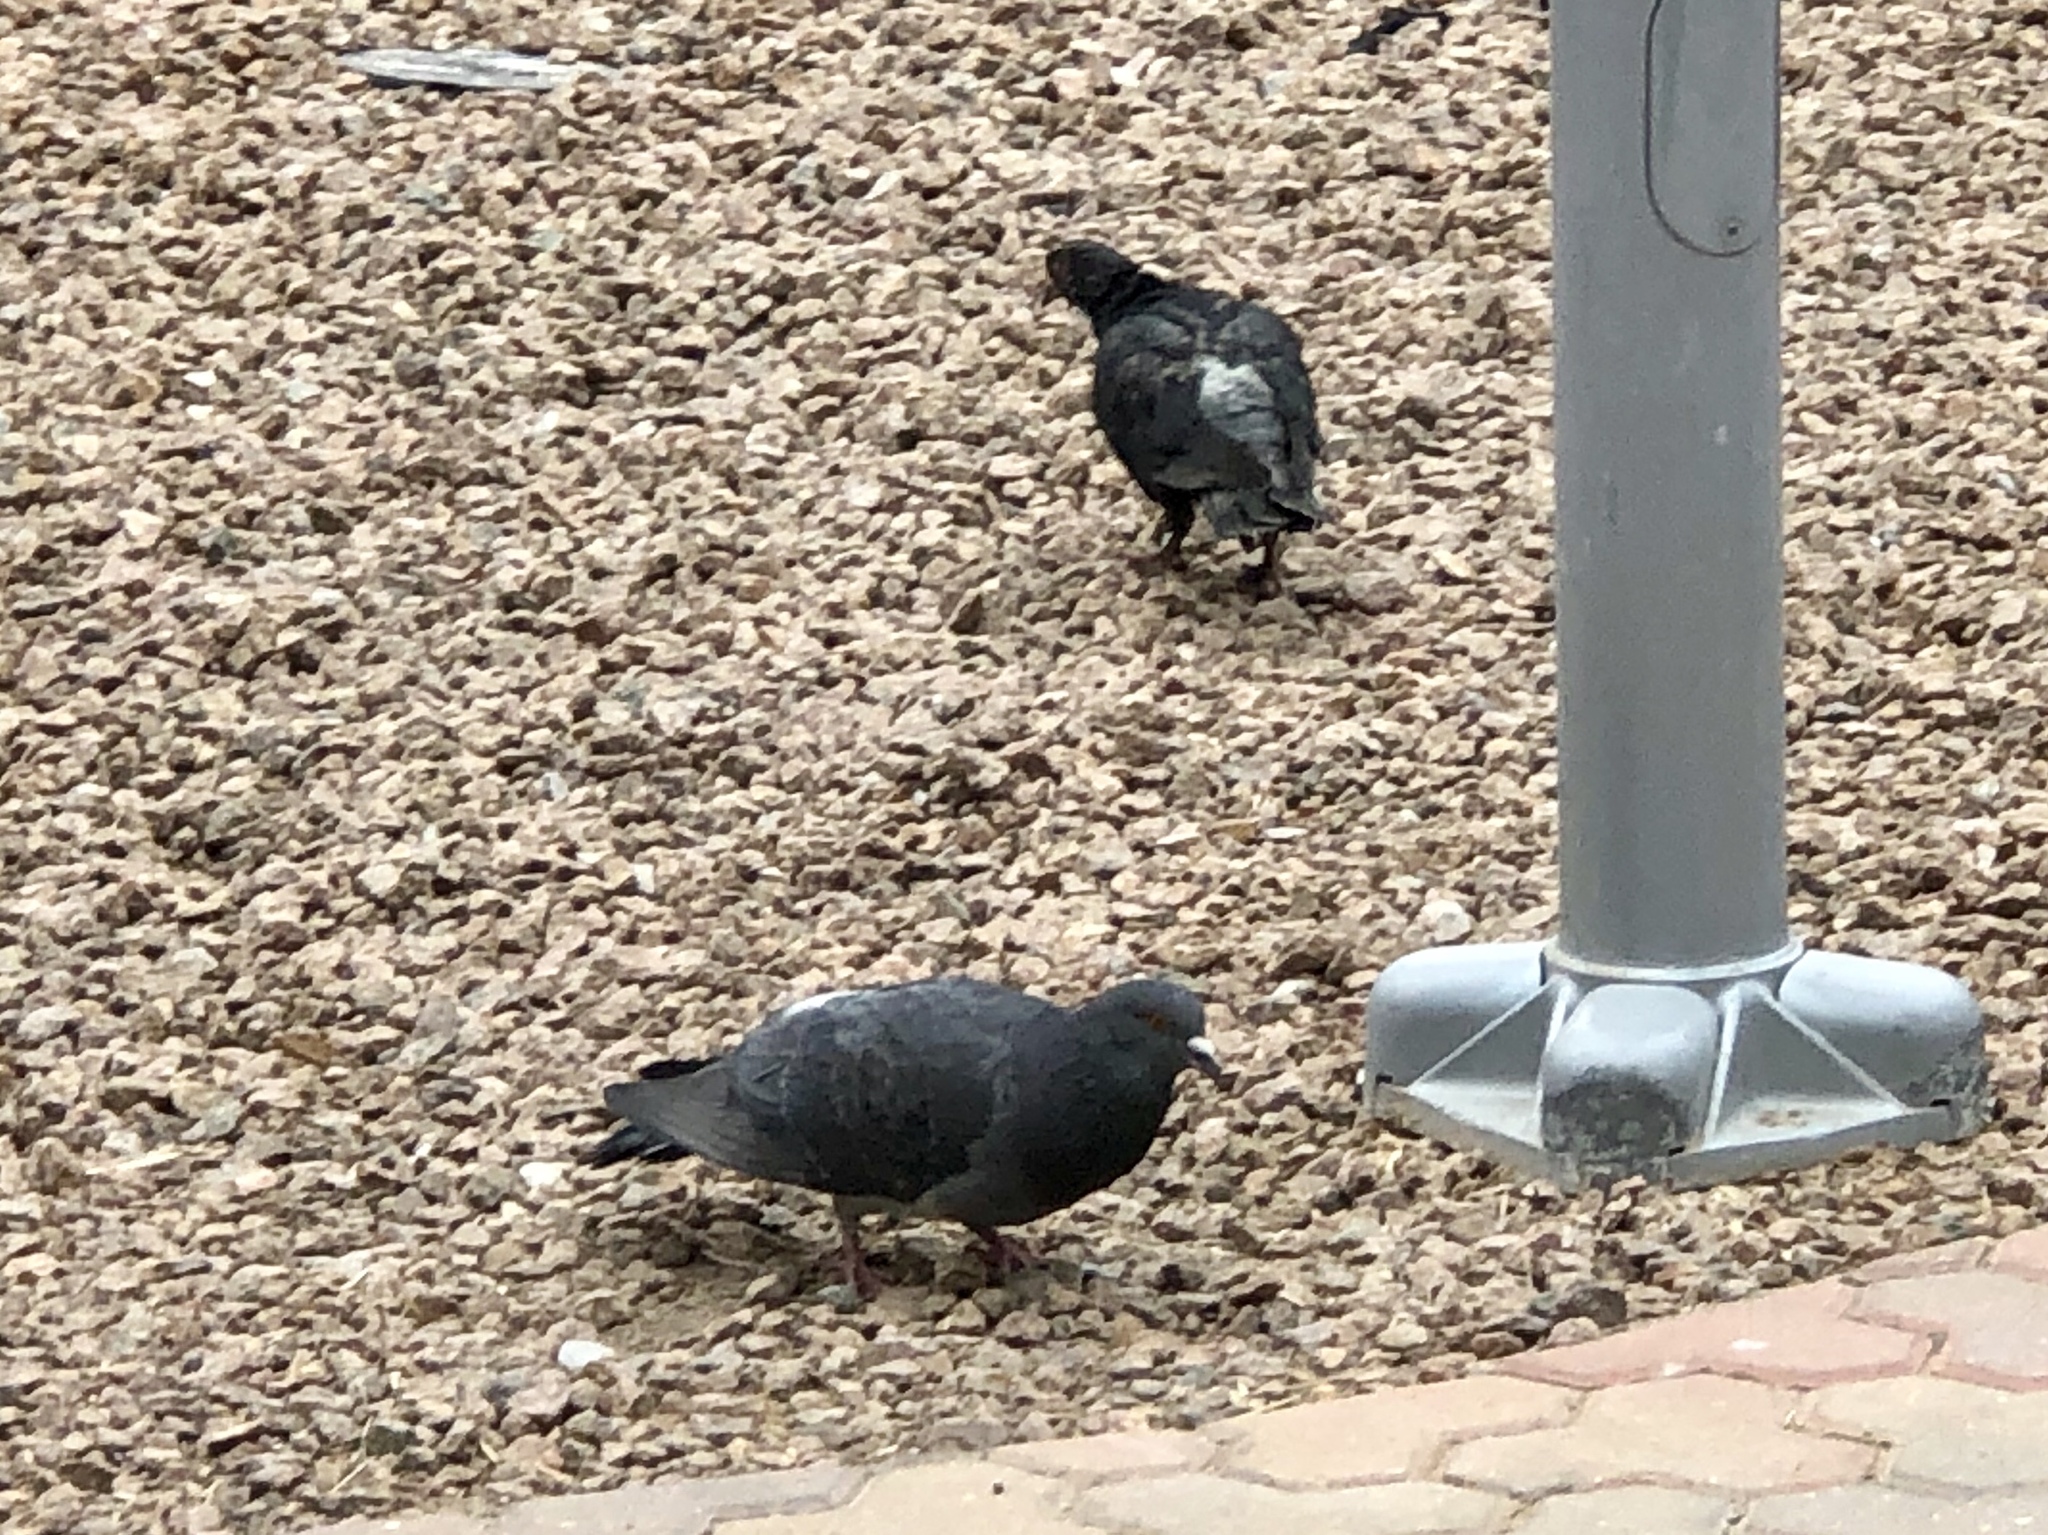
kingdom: Animalia
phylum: Chordata
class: Aves
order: Columbiformes
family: Columbidae
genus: Columba
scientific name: Columba livia
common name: Rock pigeon
